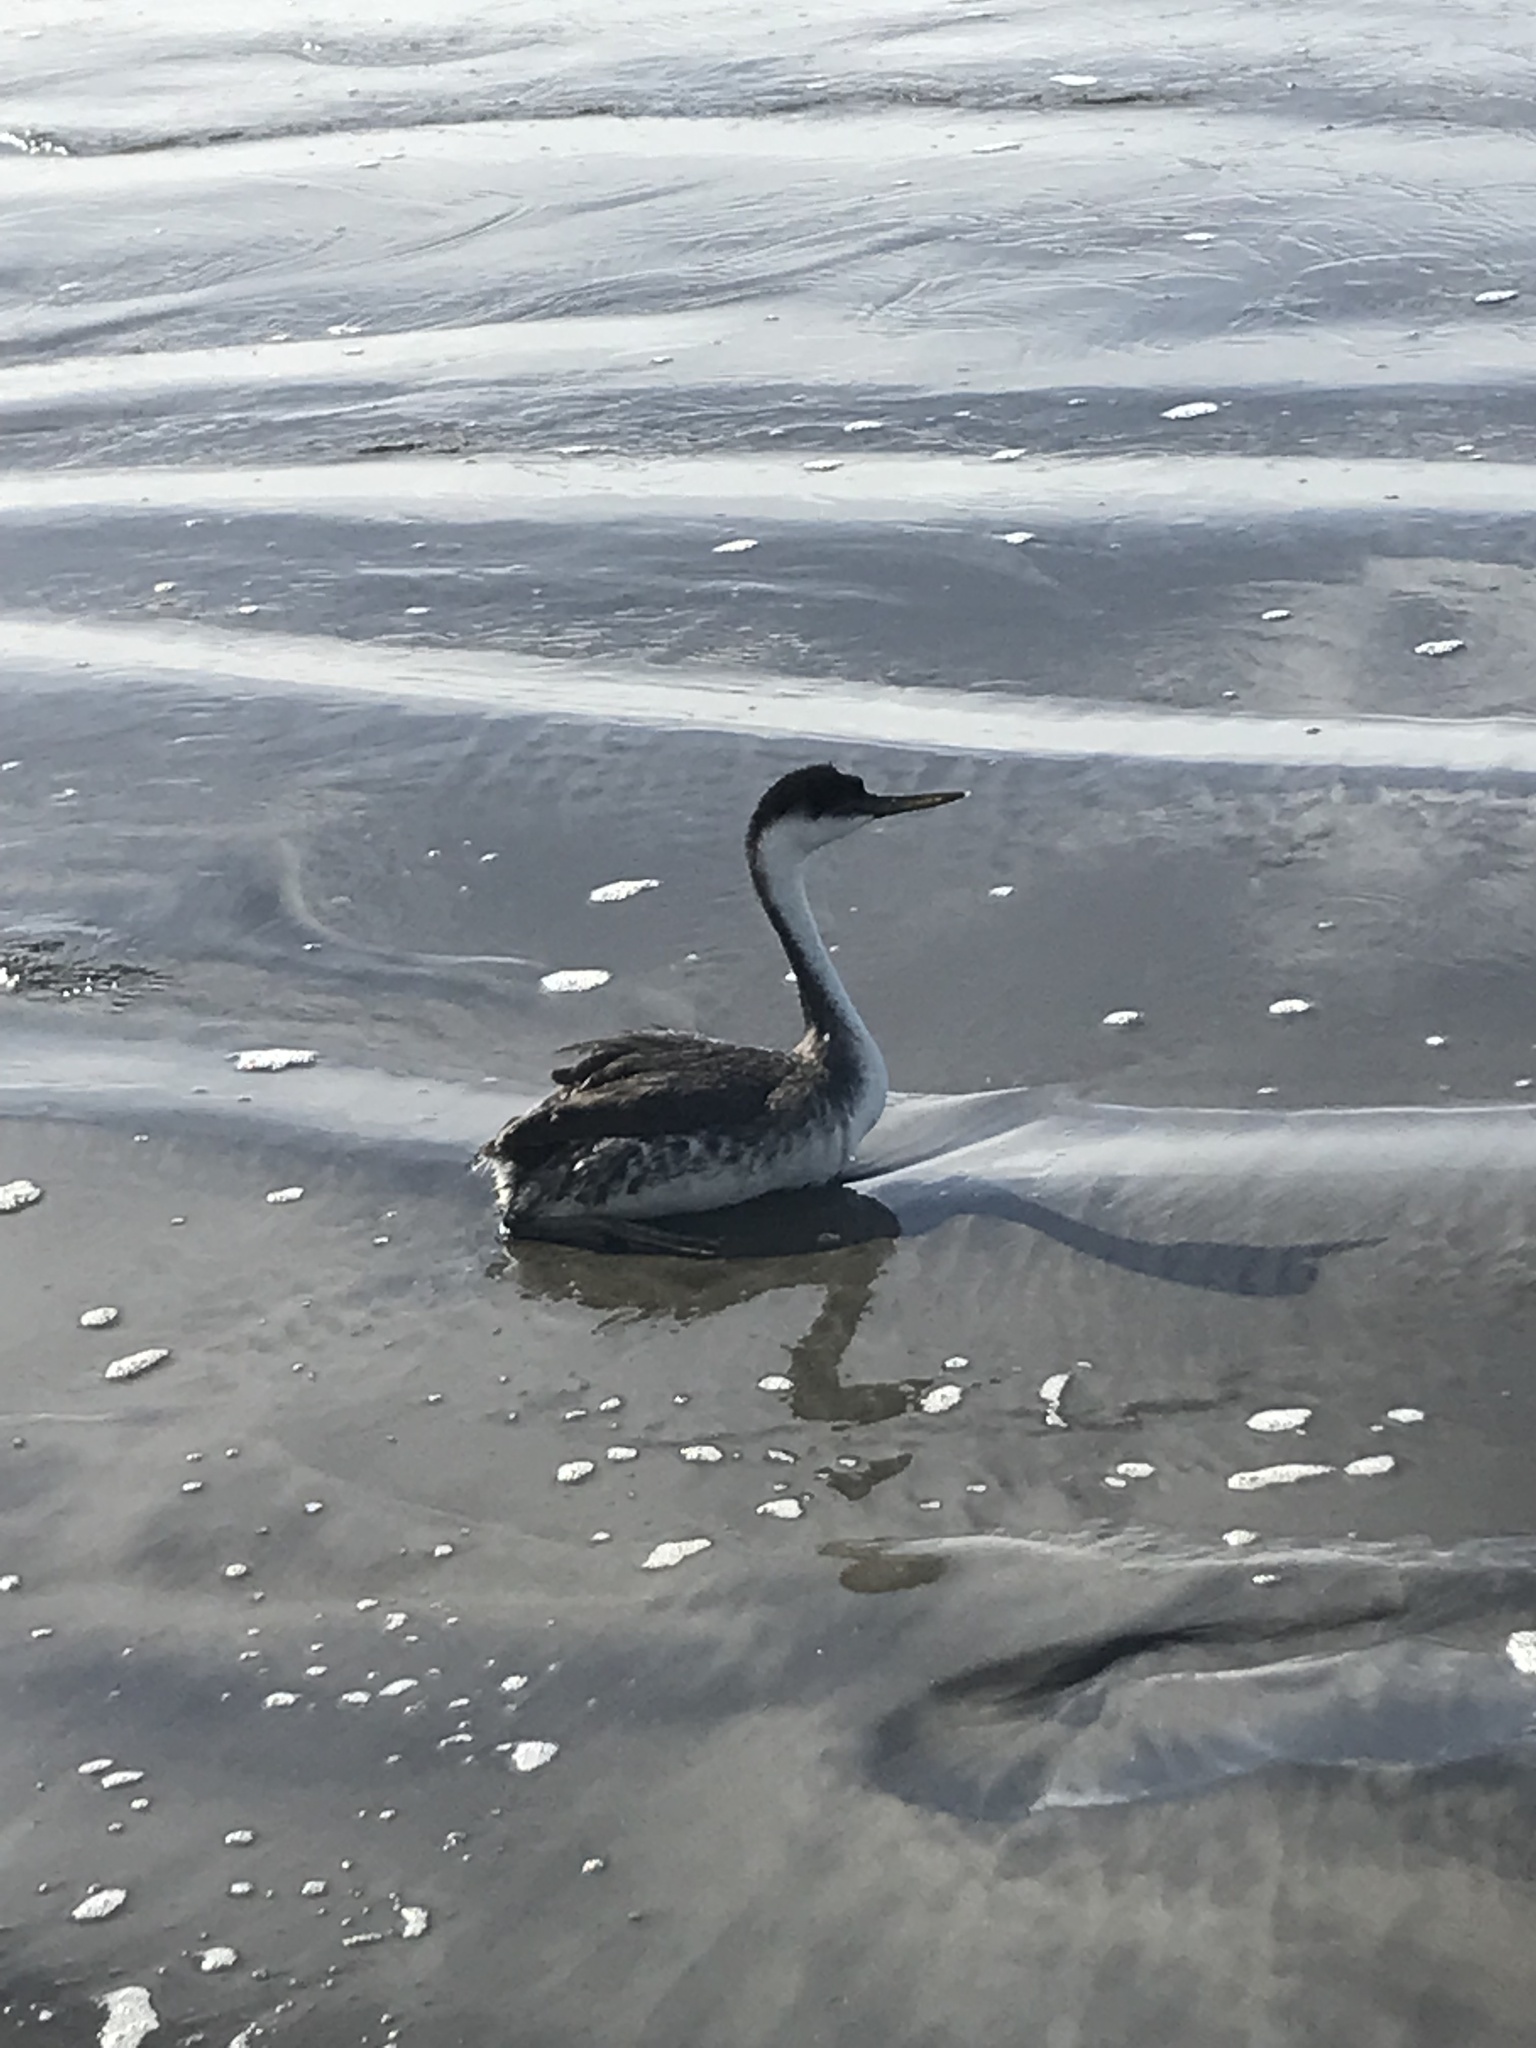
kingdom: Animalia
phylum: Chordata
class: Aves
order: Podicipediformes
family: Podicipedidae
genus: Aechmophorus
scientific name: Aechmophorus occidentalis
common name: Western grebe
